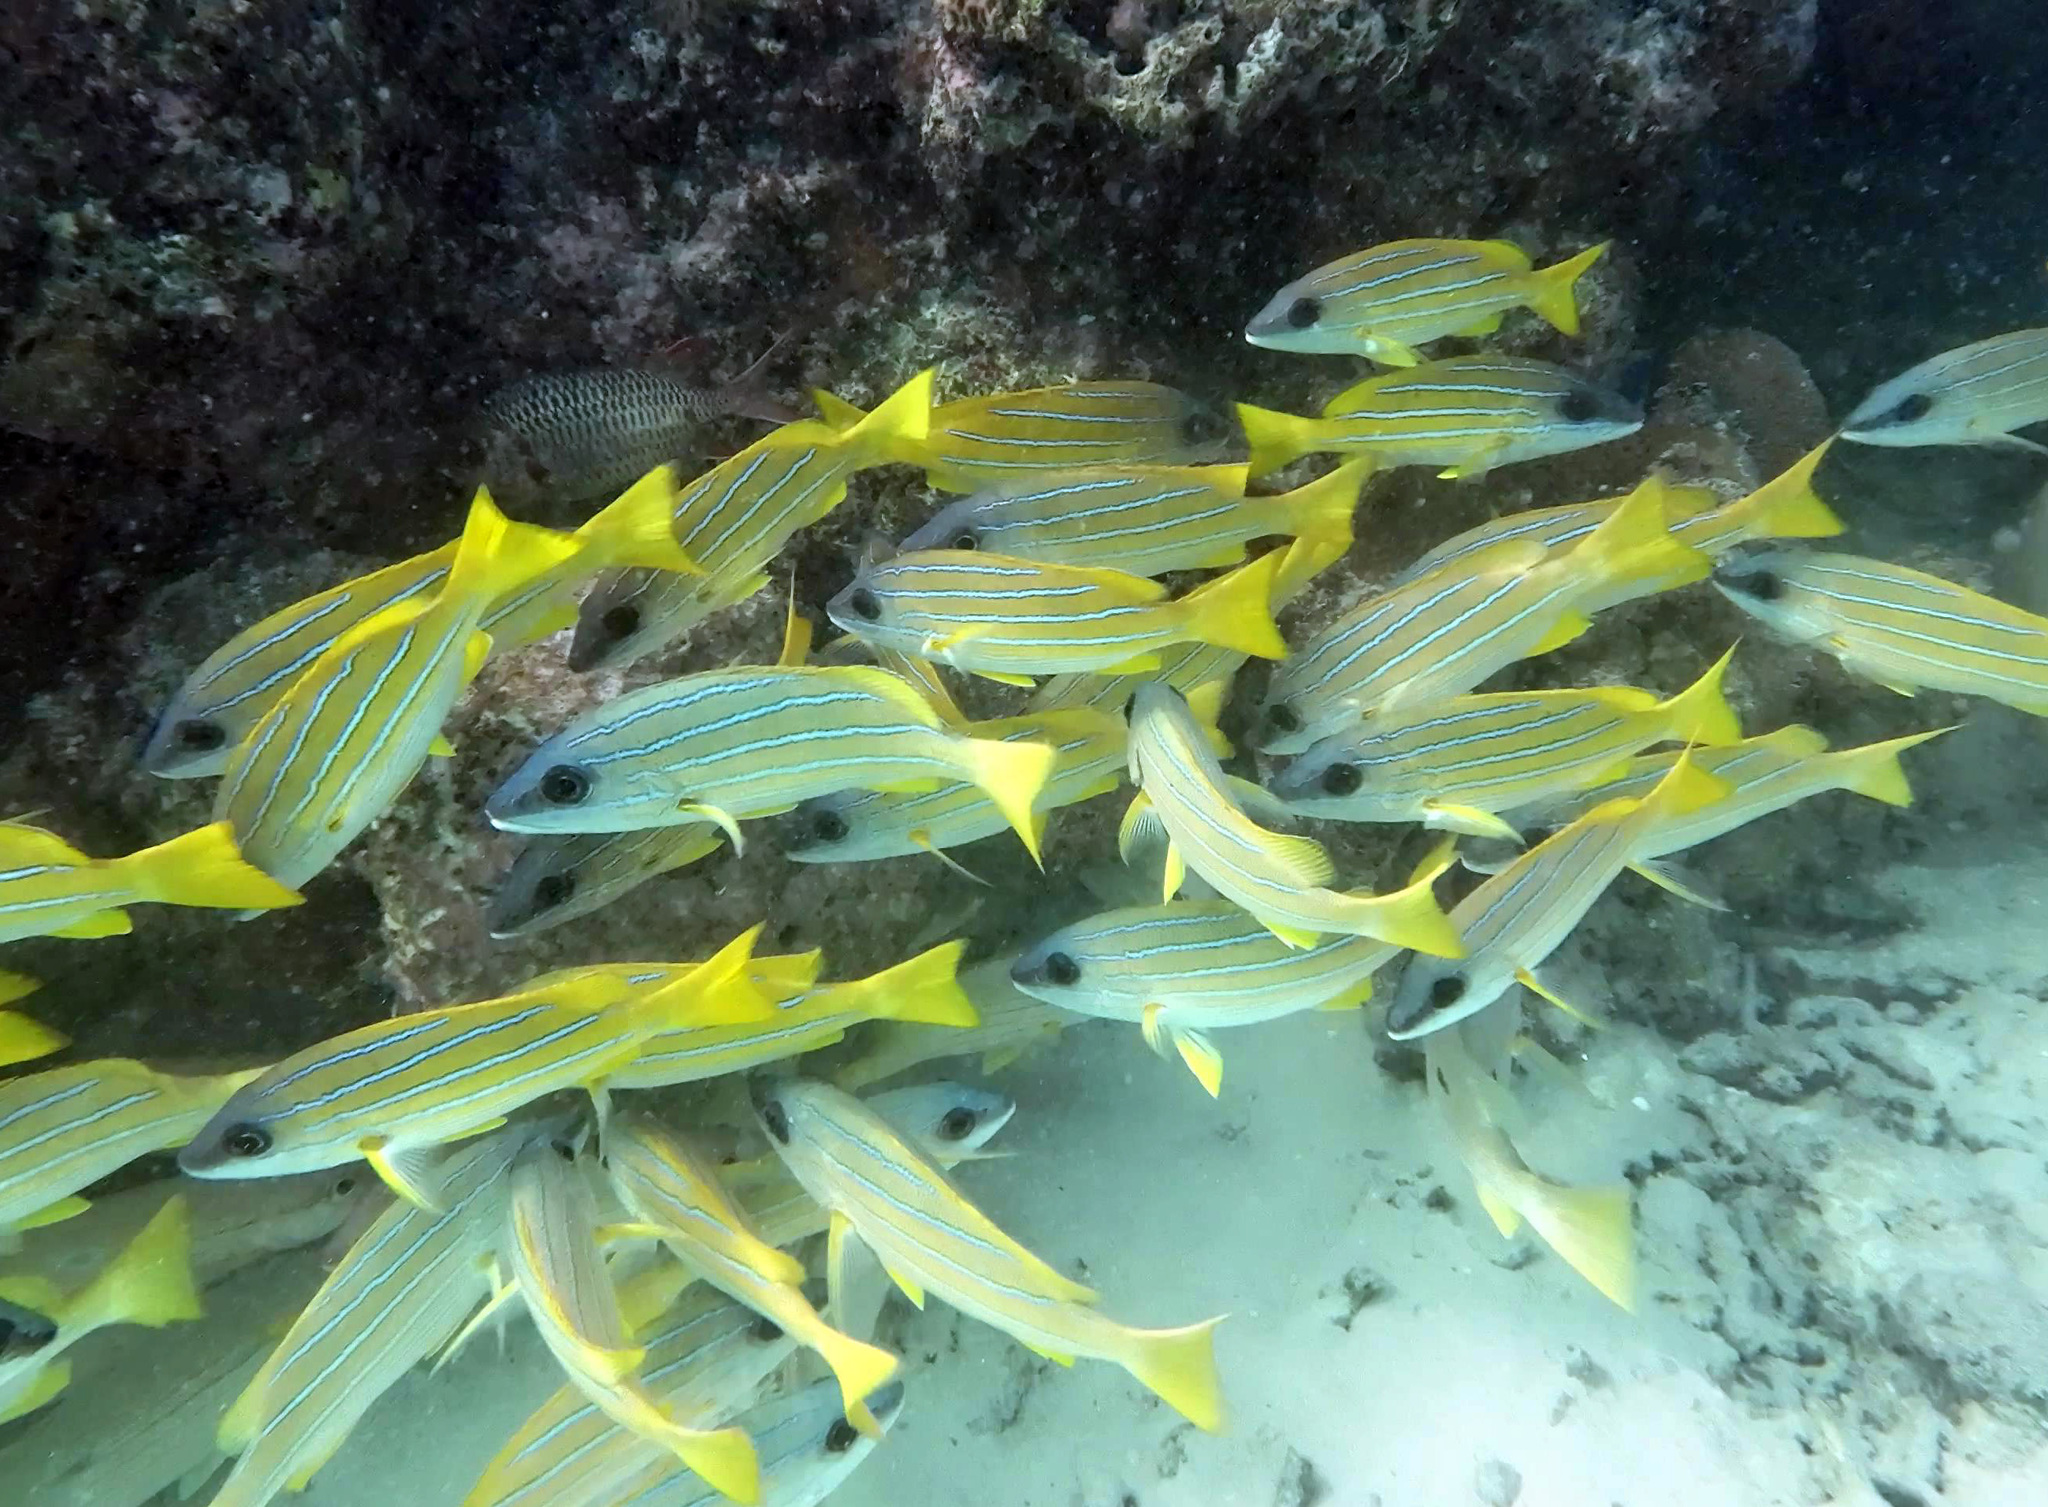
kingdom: Animalia
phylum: Chordata
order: Perciformes
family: Lutjanidae
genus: Lutjanus
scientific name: Lutjanus kasmira
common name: Common bluestripe snapper
